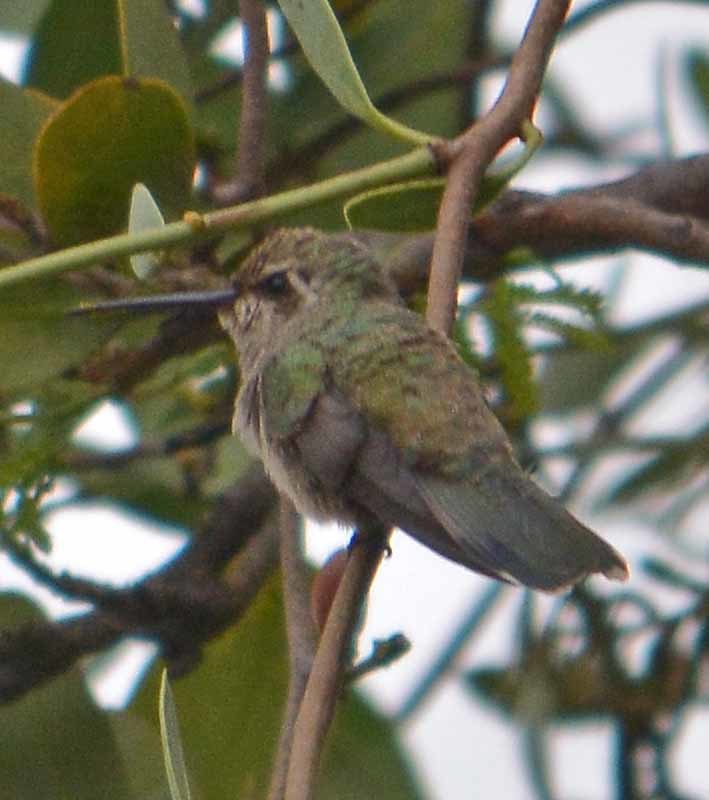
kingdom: Animalia
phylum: Chordata
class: Aves
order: Apodiformes
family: Trochilidae
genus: Cynanthus
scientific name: Cynanthus latirostris
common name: Broad-billed hummingbird
